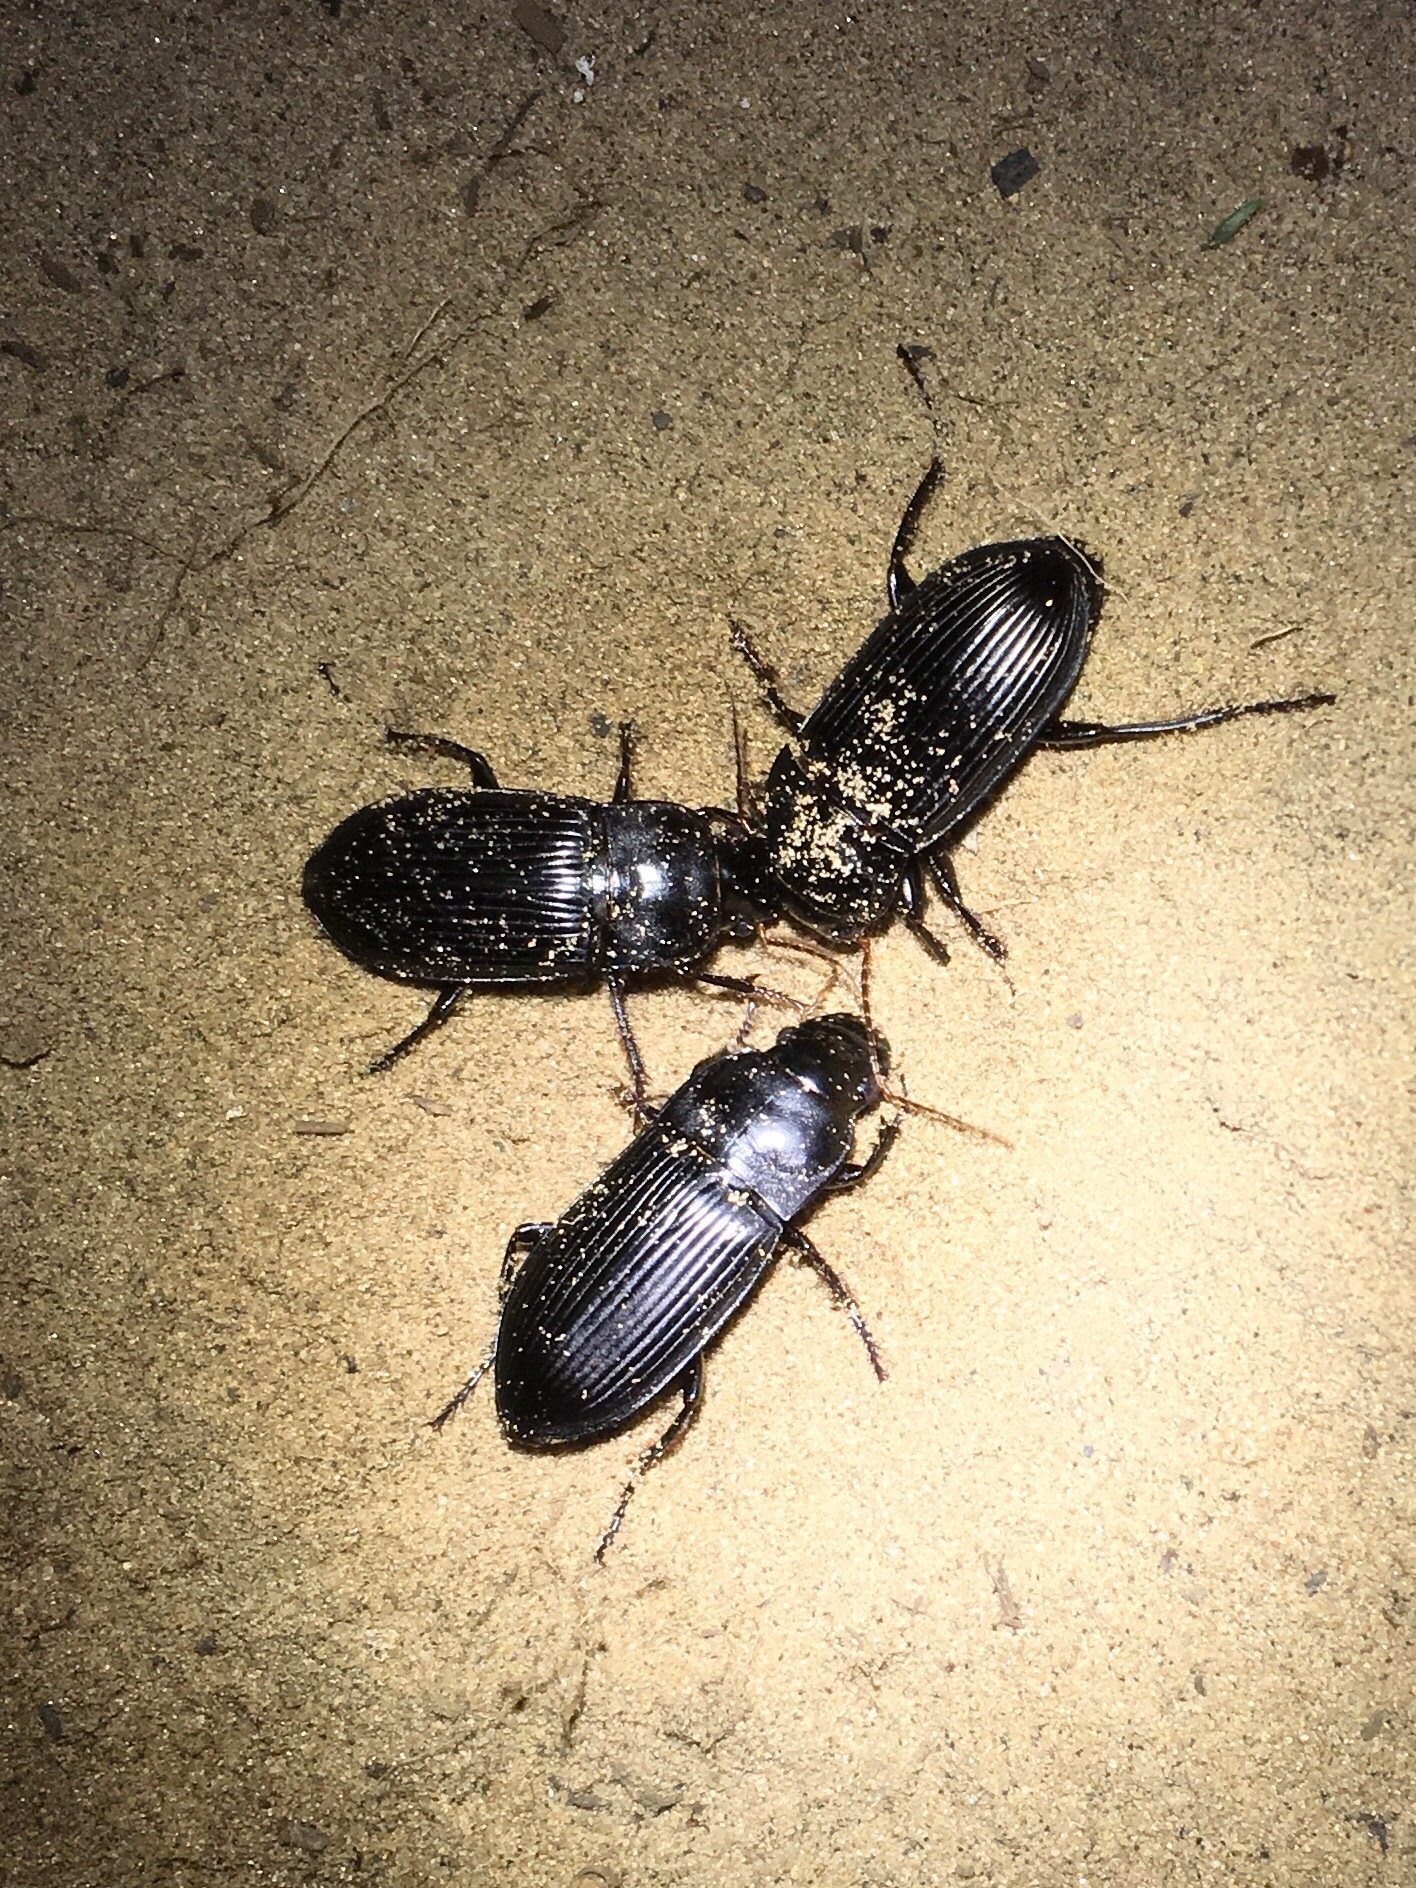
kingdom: Animalia
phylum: Arthropoda
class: Insecta
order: Coleoptera
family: Carabidae
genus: Harpalus
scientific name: Harpalus caliginosus
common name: Murky ground beetle
